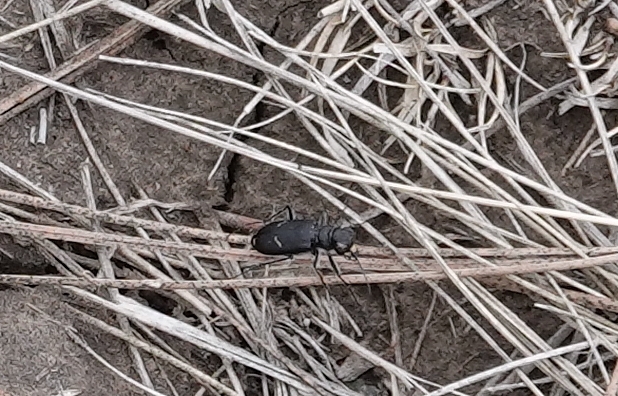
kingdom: Animalia
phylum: Arthropoda
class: Insecta
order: Coleoptera
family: Carabidae
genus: Cicindela
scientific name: Cicindela purpurea
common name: Cow path tiger beetle
